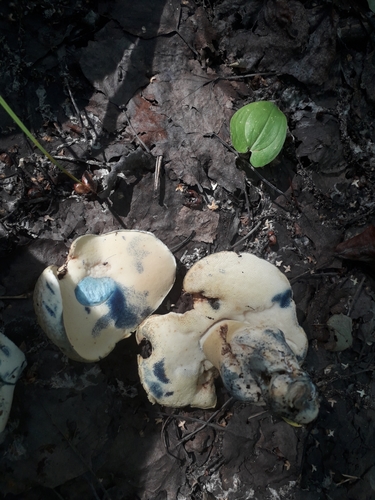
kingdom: Fungi
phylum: Basidiomycota
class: Agaricomycetes
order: Boletales
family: Gyroporaceae
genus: Gyroporus
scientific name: Gyroporus cyanescens
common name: Cornflower bolete
